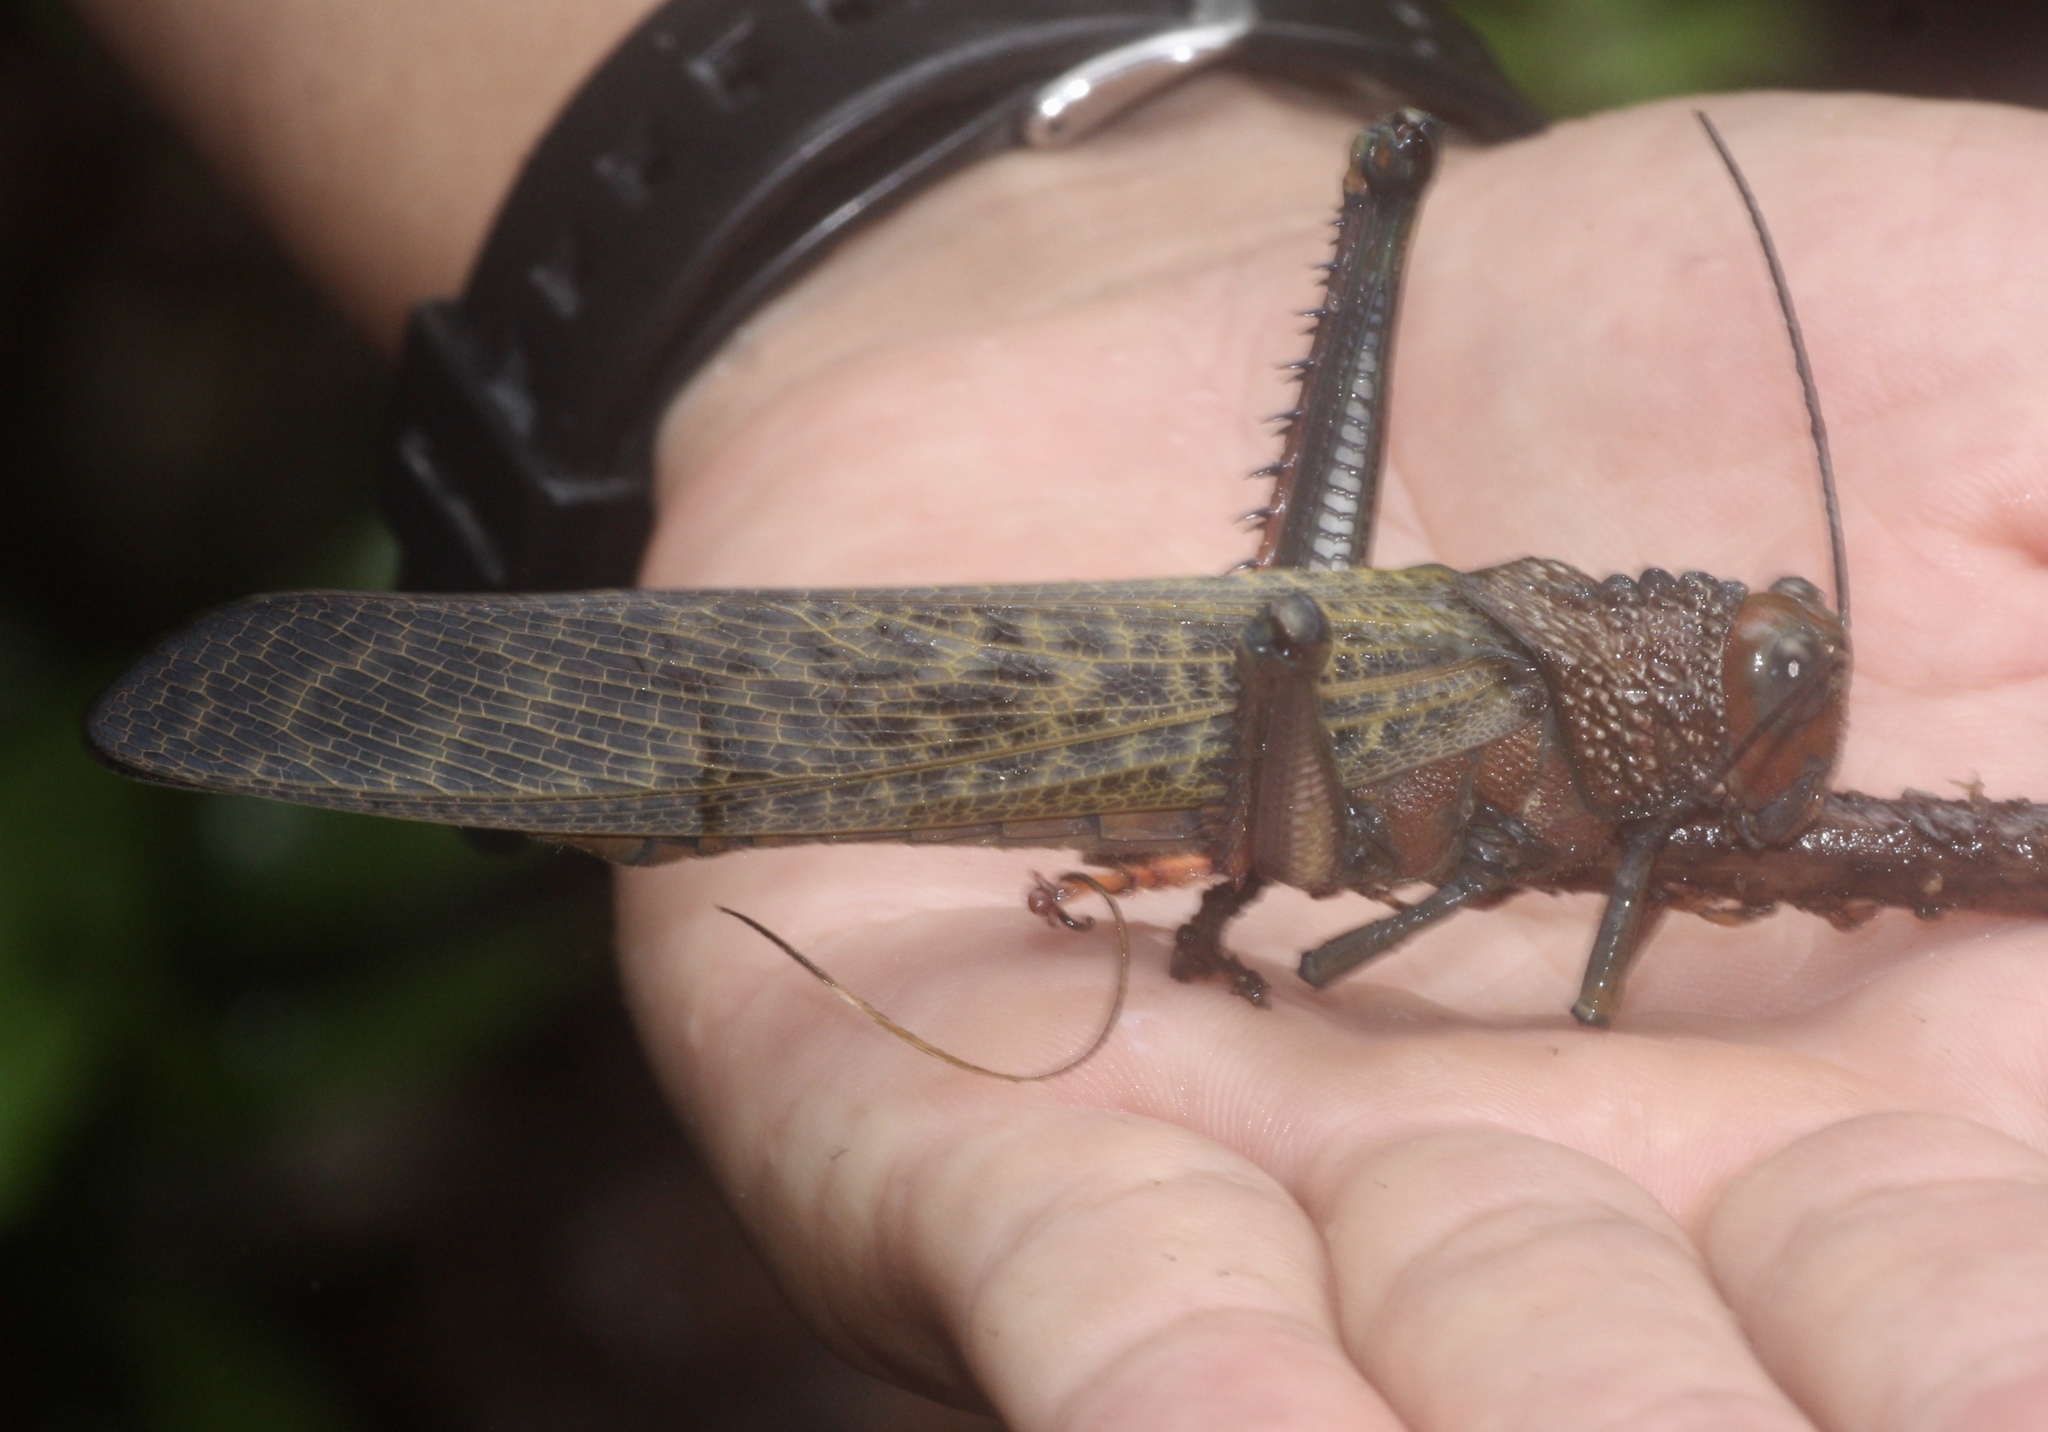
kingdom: Animalia
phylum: Arthropoda
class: Insecta
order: Orthoptera
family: Romaleidae
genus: Tropidacris
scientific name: Tropidacris cristata
